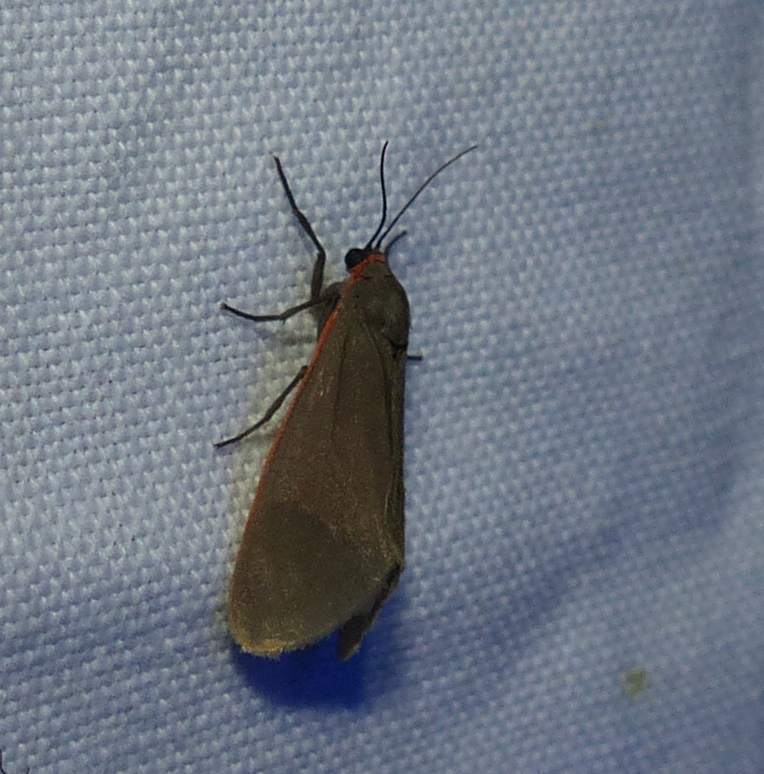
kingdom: Animalia
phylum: Arthropoda
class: Insecta
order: Lepidoptera
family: Erebidae
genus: Virbia
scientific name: Virbia laeta
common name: Joyful holomelina moth
